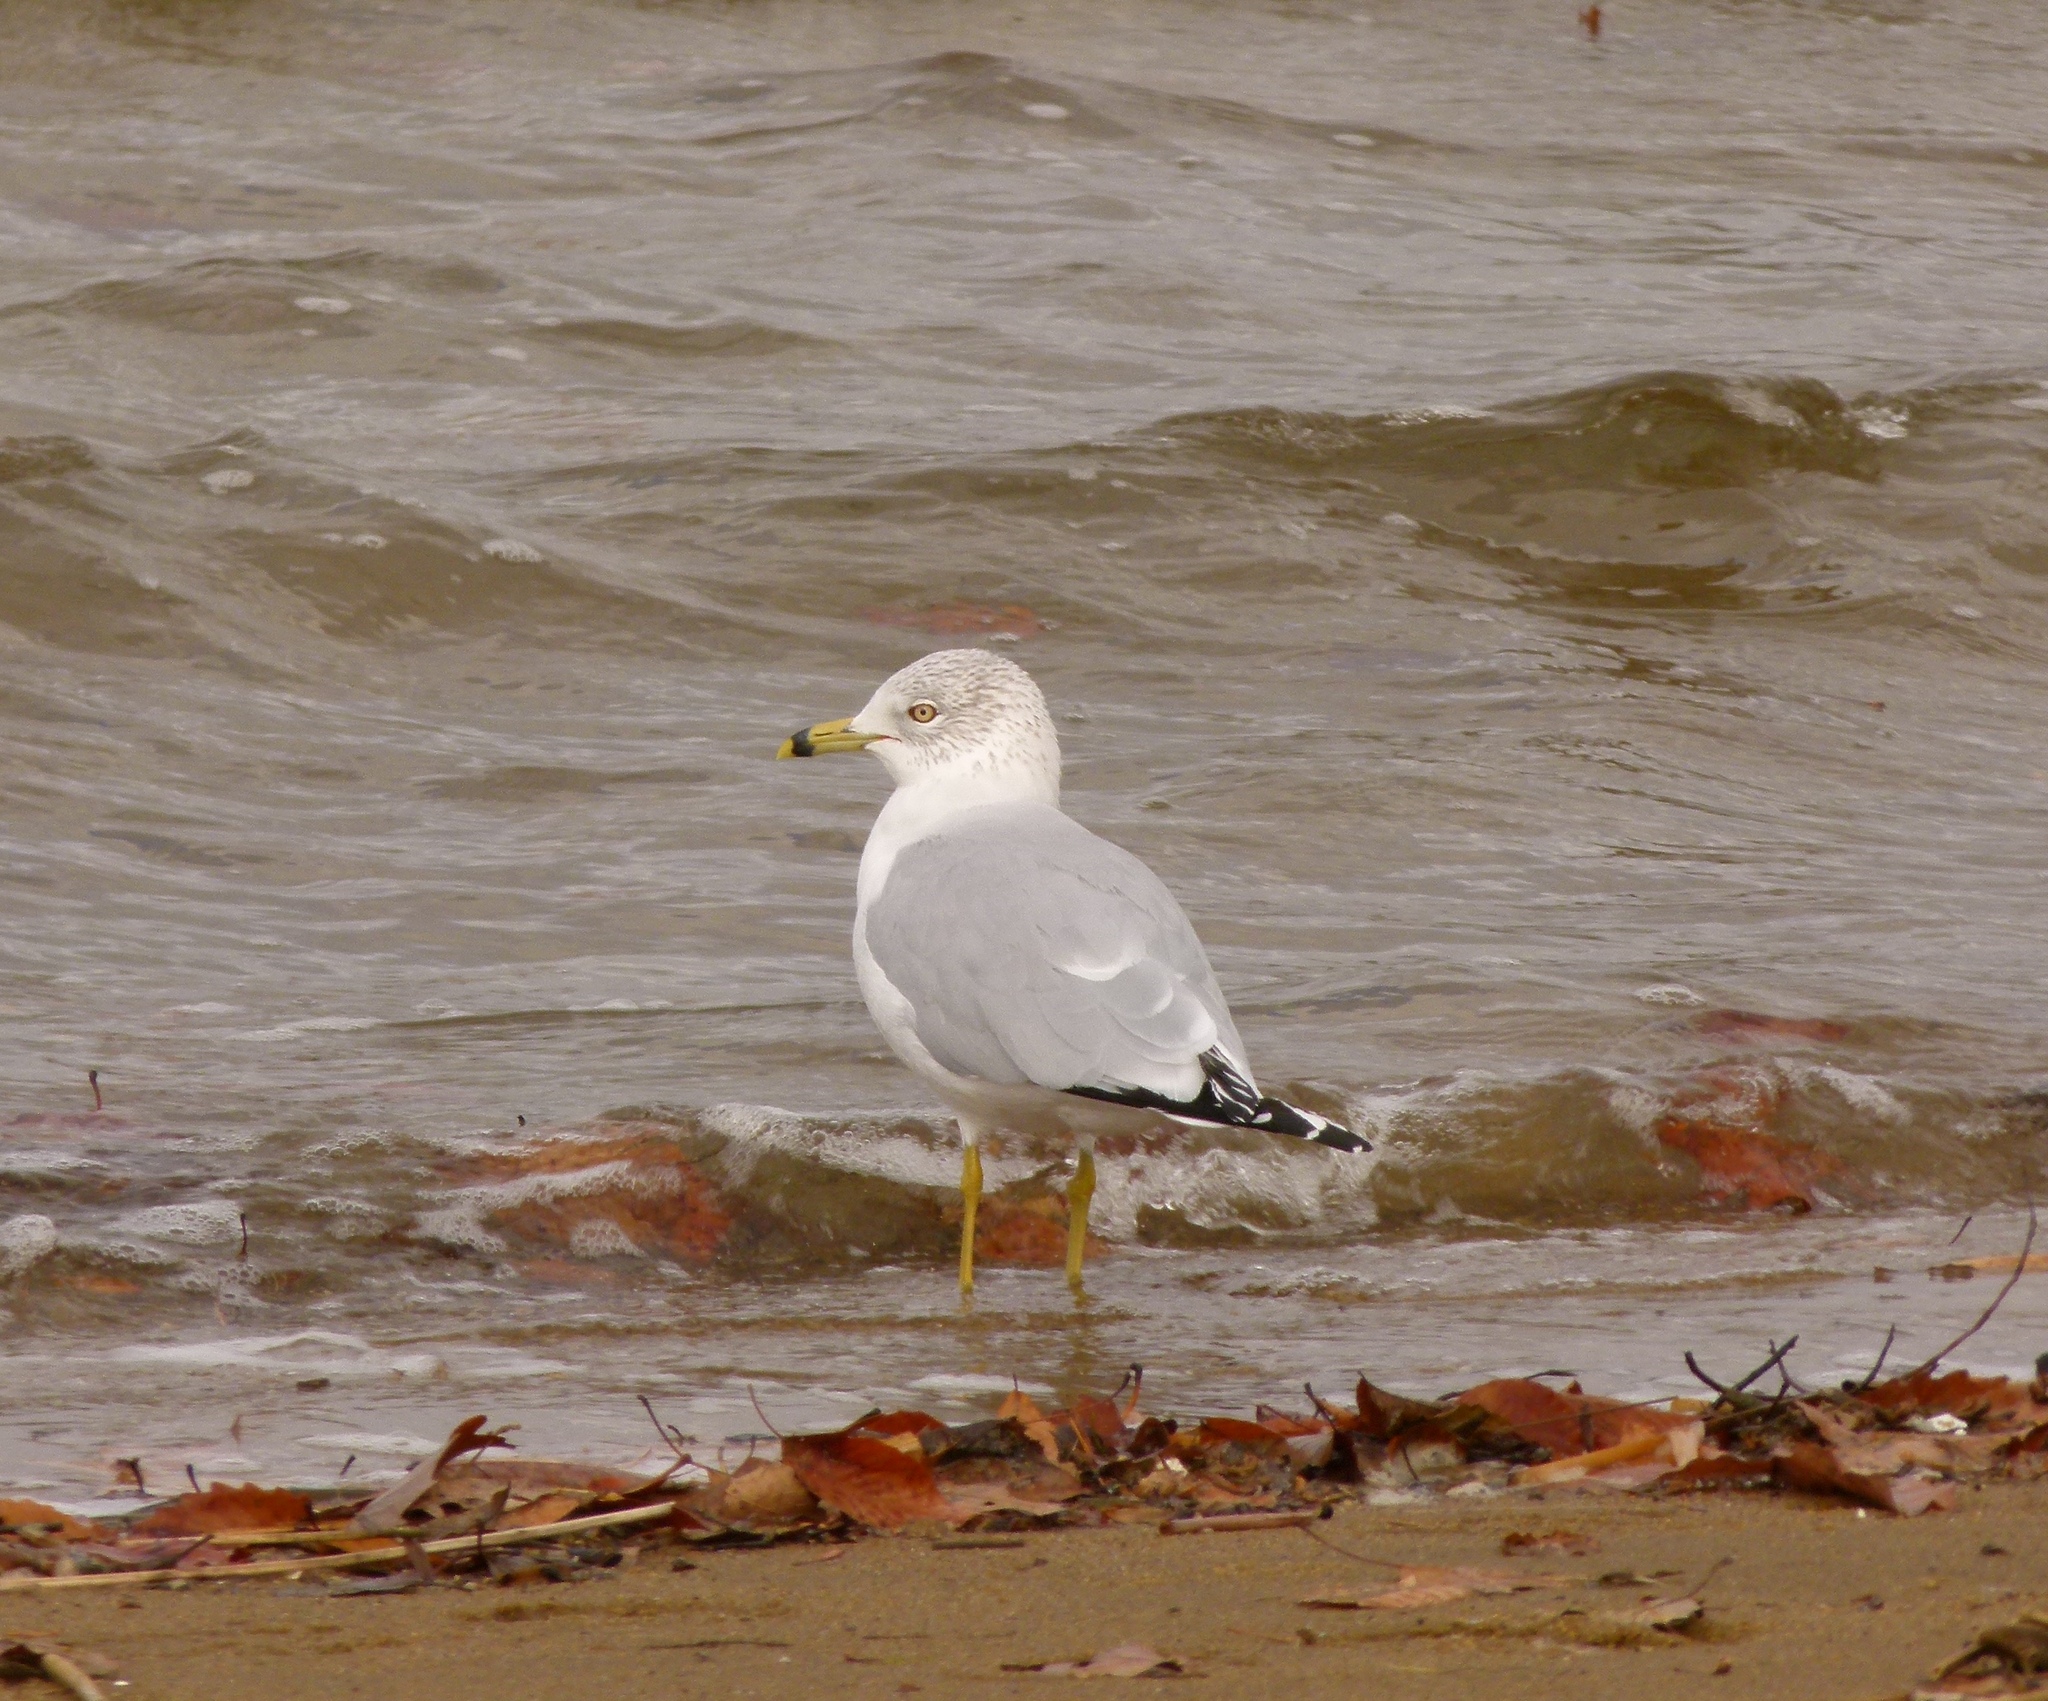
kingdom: Animalia
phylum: Chordata
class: Aves
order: Charadriiformes
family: Laridae
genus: Larus
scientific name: Larus delawarensis
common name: Ring-billed gull
